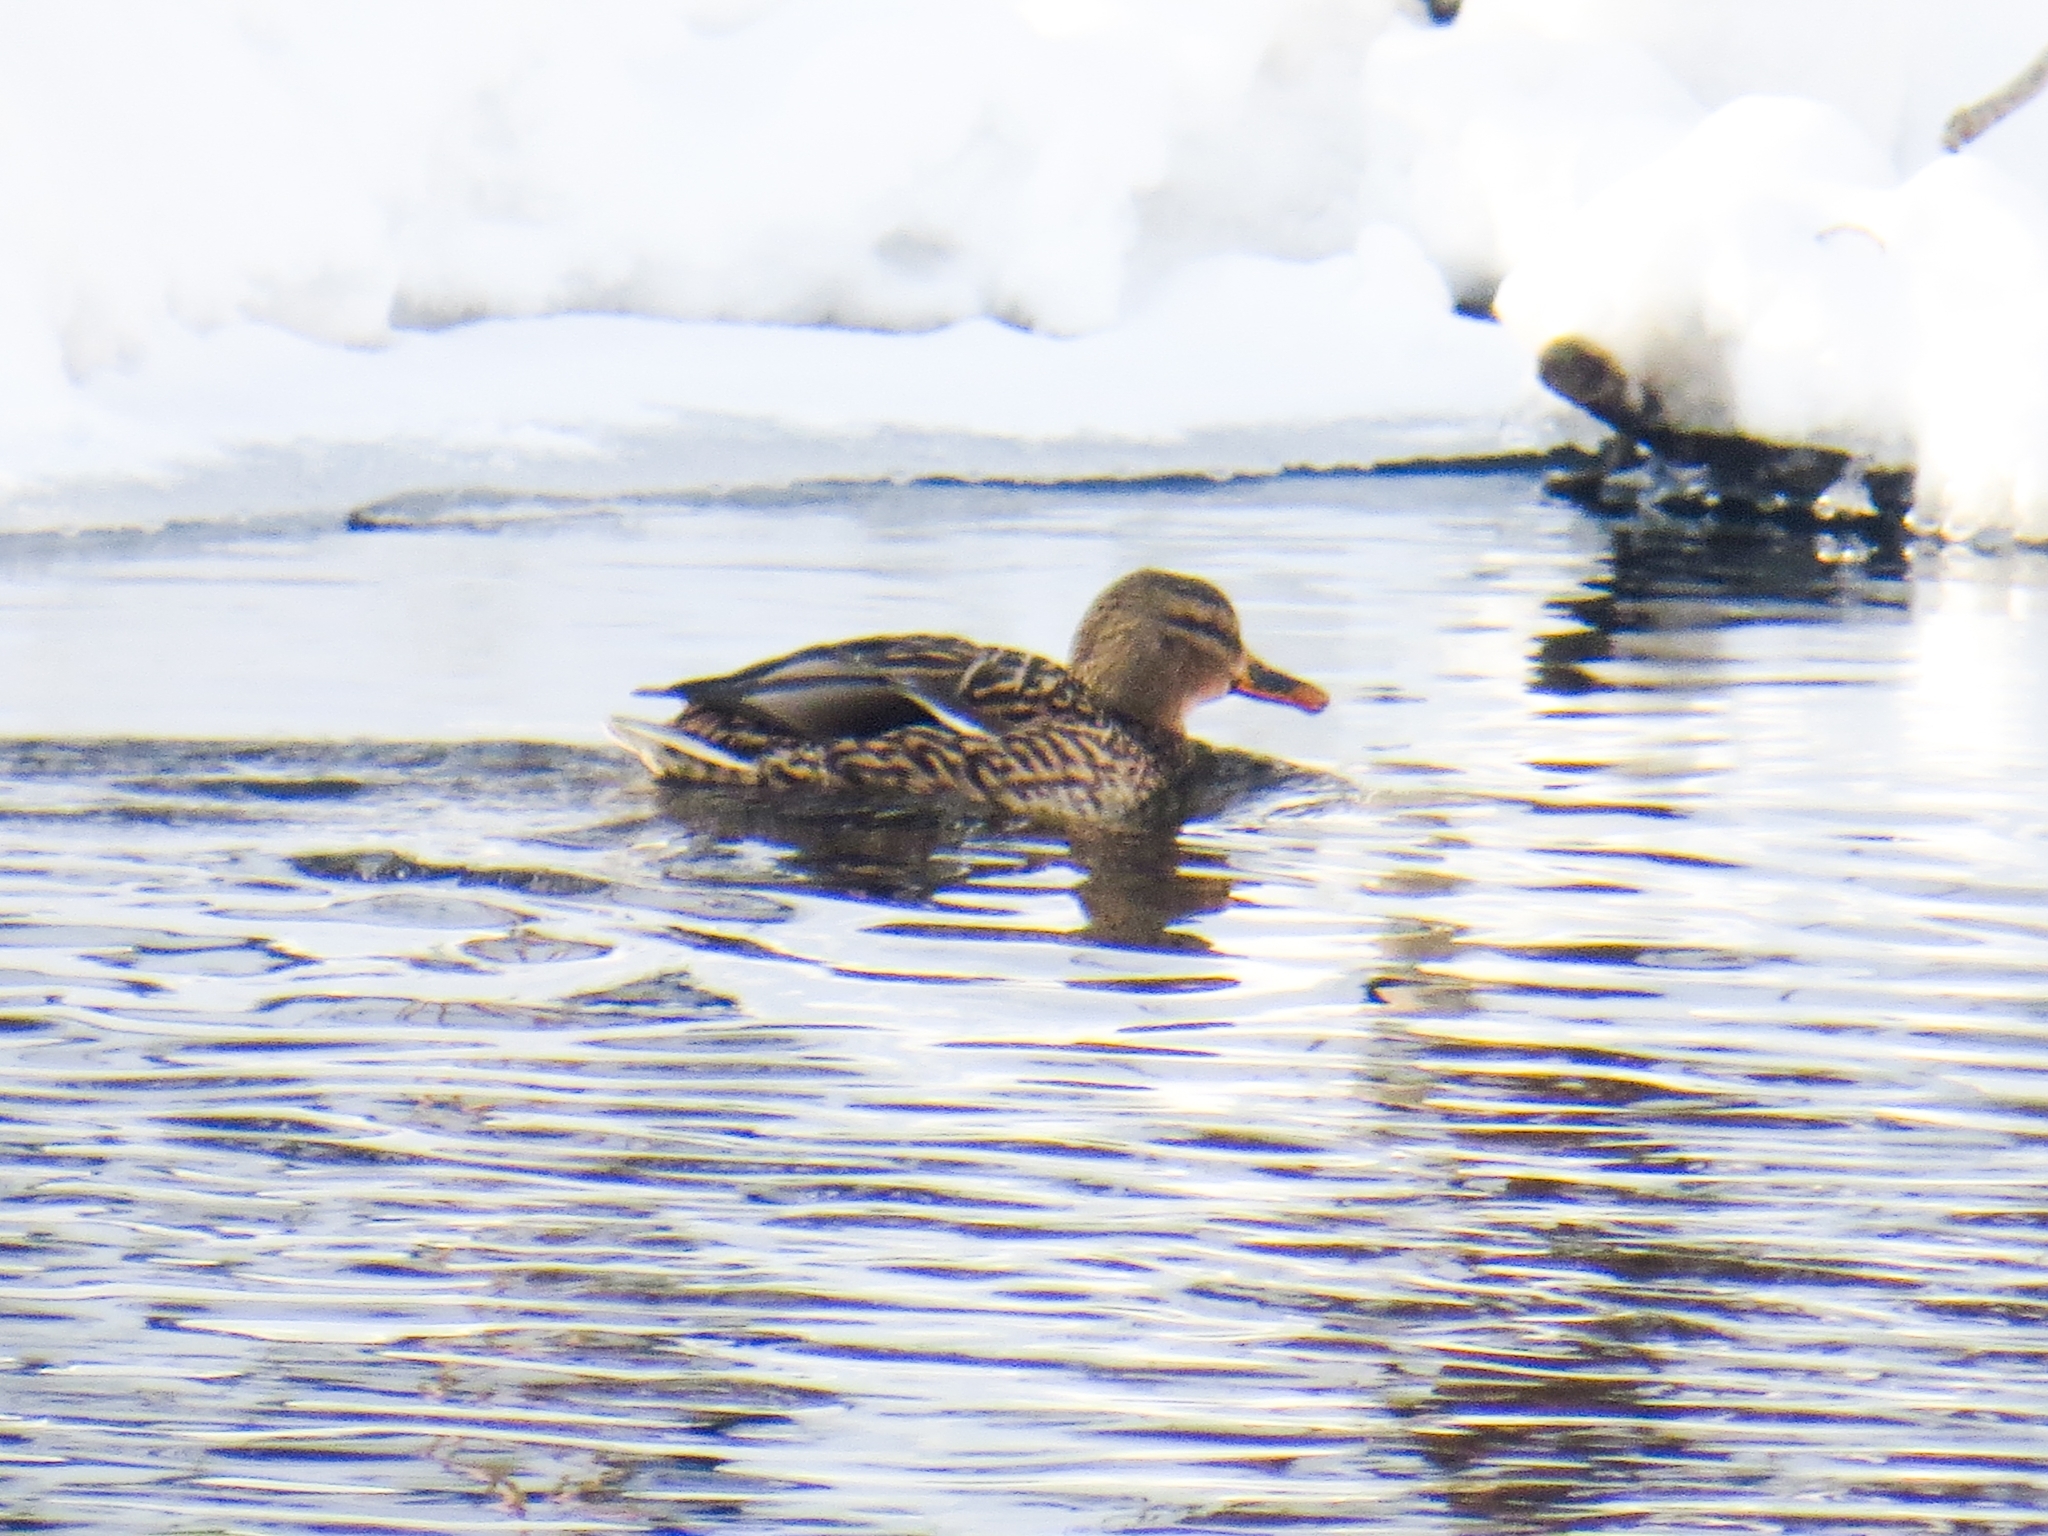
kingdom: Animalia
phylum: Chordata
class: Aves
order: Anseriformes
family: Anatidae
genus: Anas
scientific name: Anas platyrhynchos
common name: Mallard
